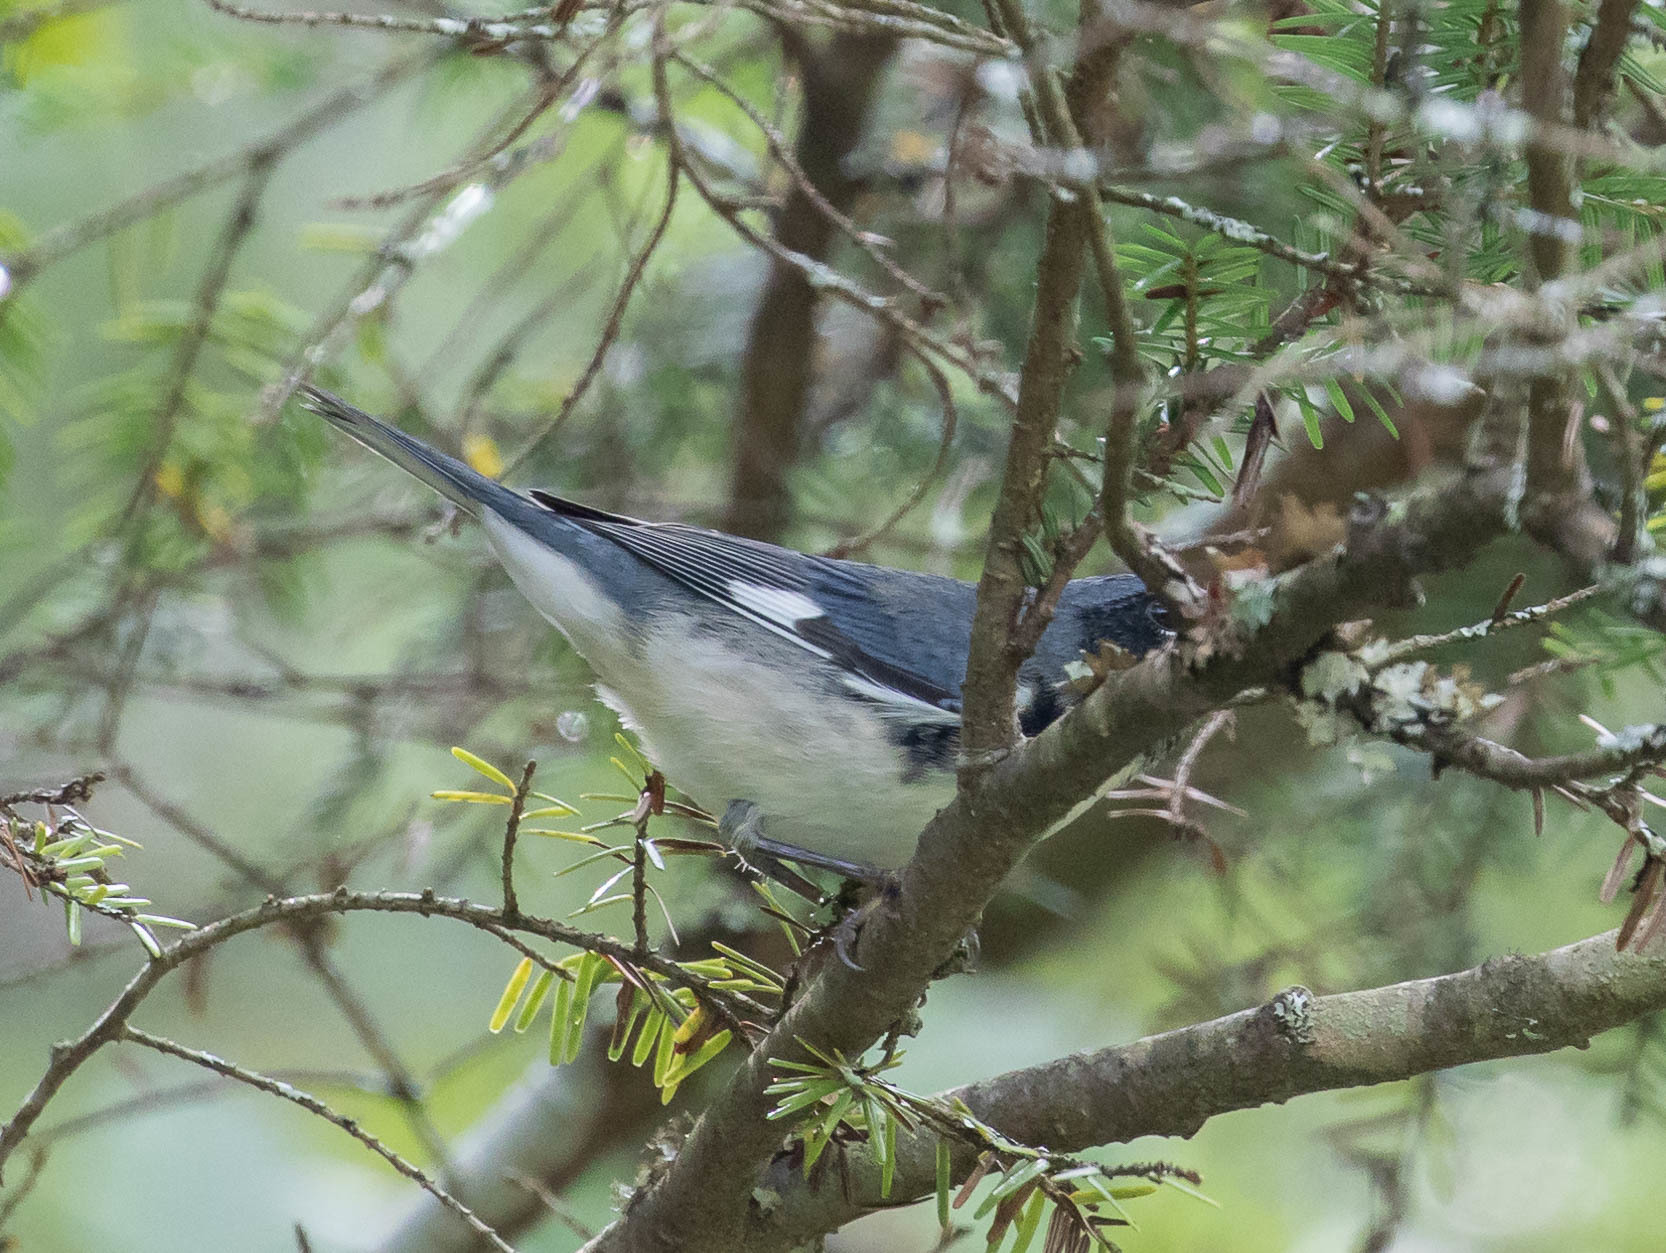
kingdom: Animalia
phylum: Chordata
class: Aves
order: Passeriformes
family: Parulidae
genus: Setophaga
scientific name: Setophaga caerulescens
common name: Black-throated blue warbler
